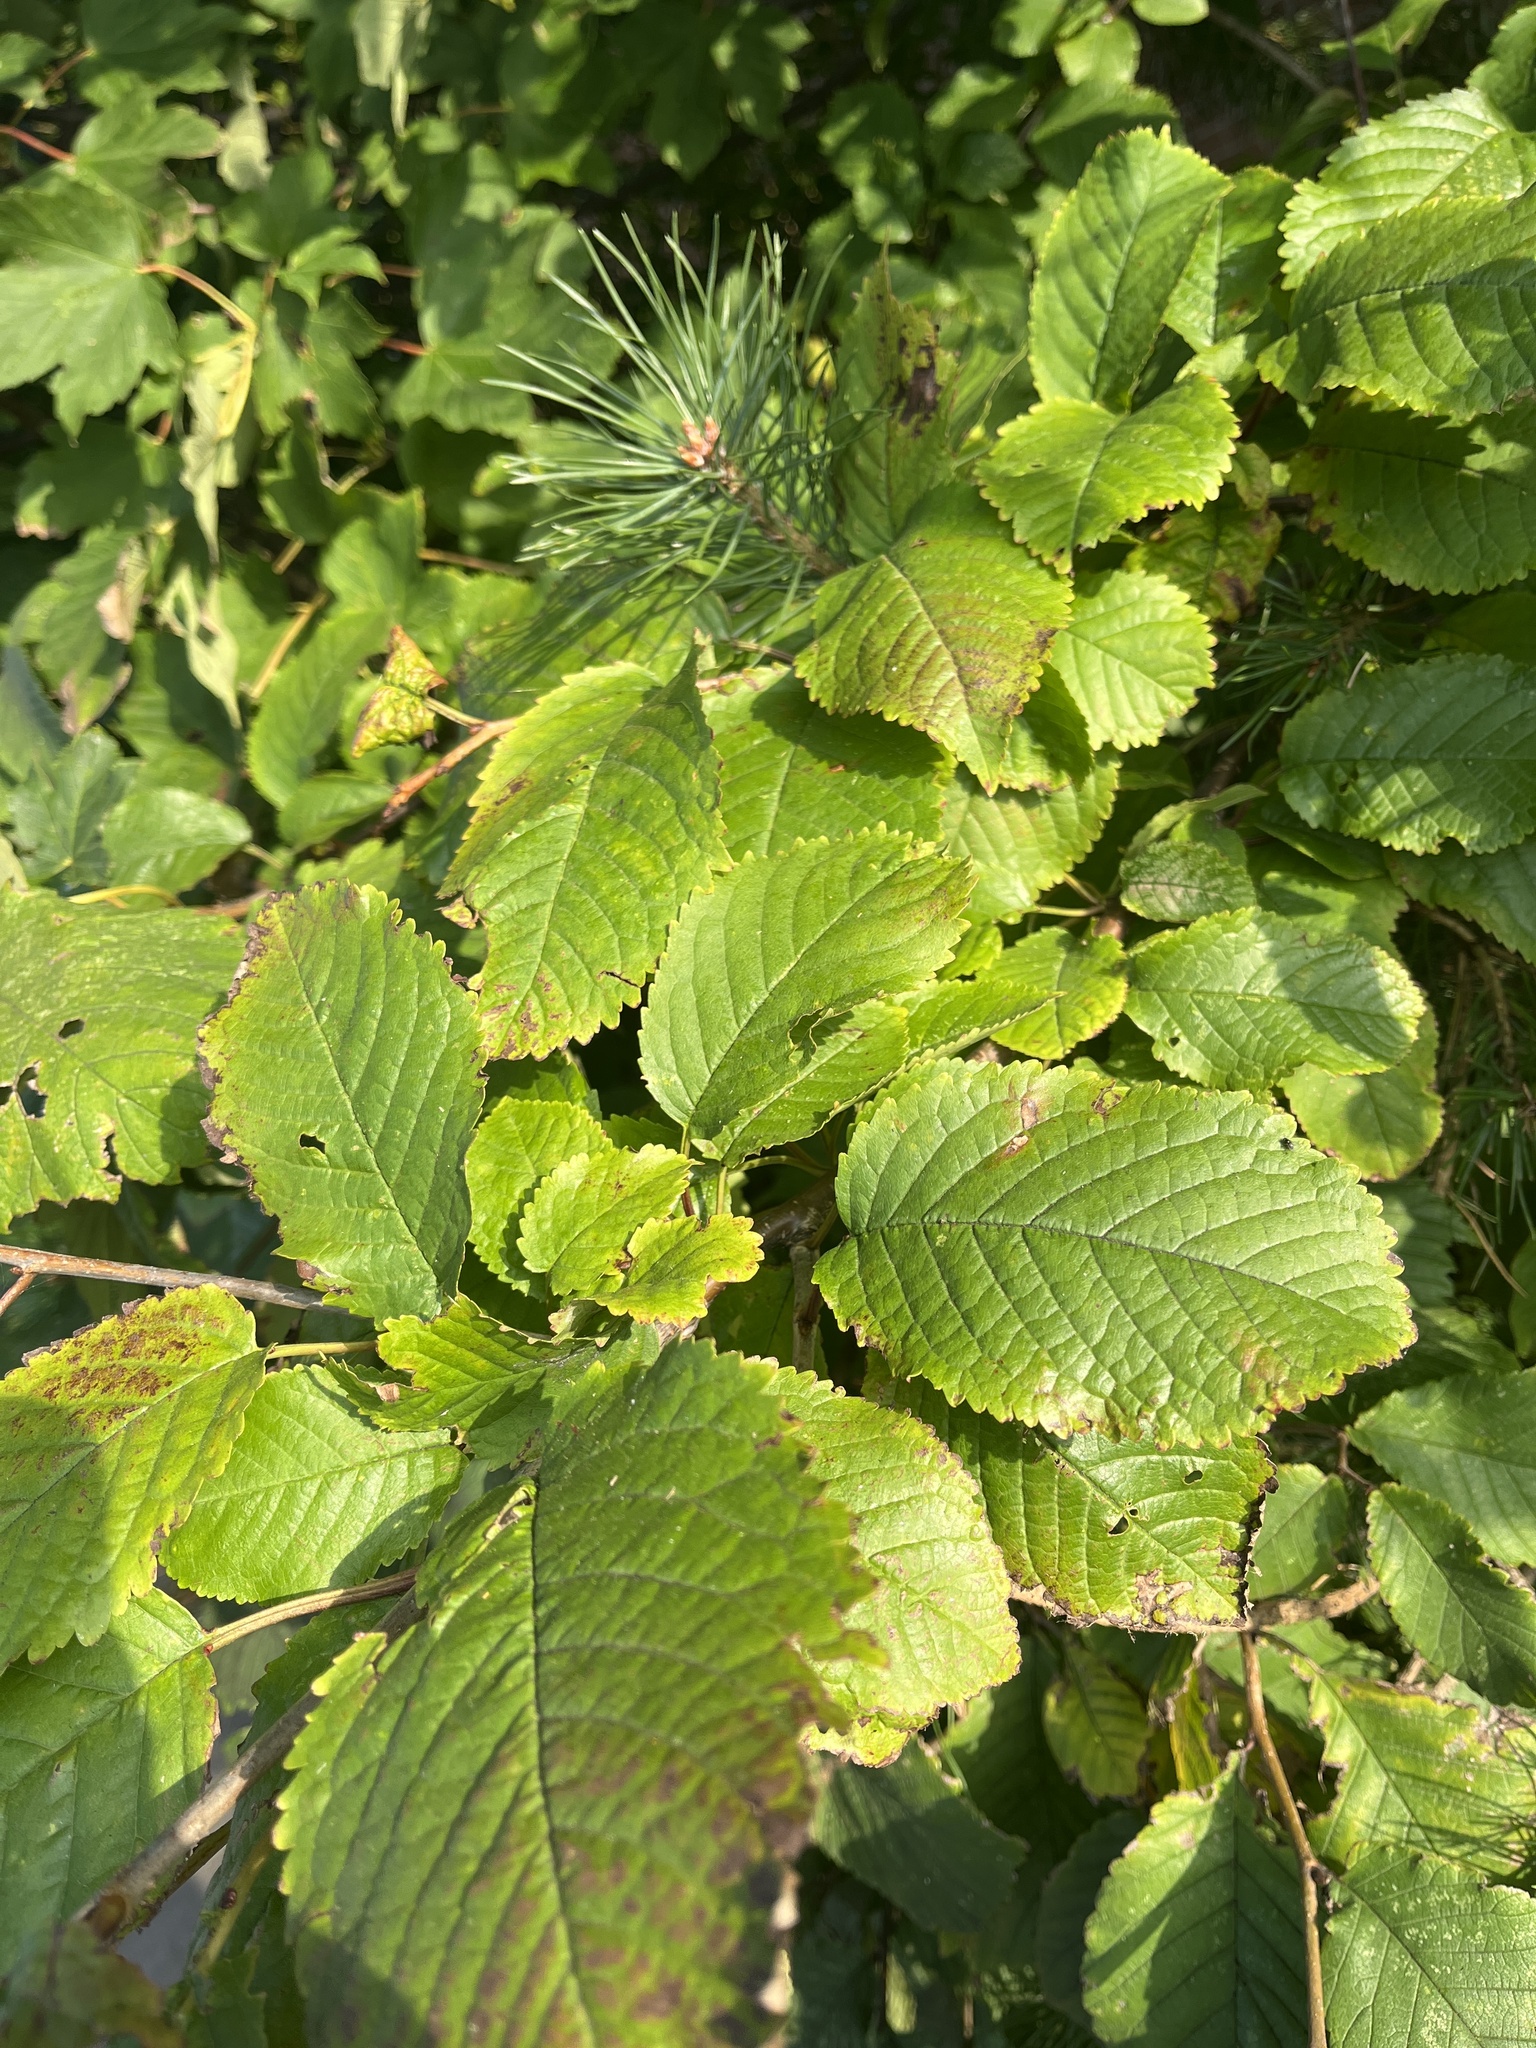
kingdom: Plantae
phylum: Tracheophyta
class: Magnoliopsida
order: Rosales
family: Rosaceae
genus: Prunus
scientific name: Prunus avium
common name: Sweet cherry
